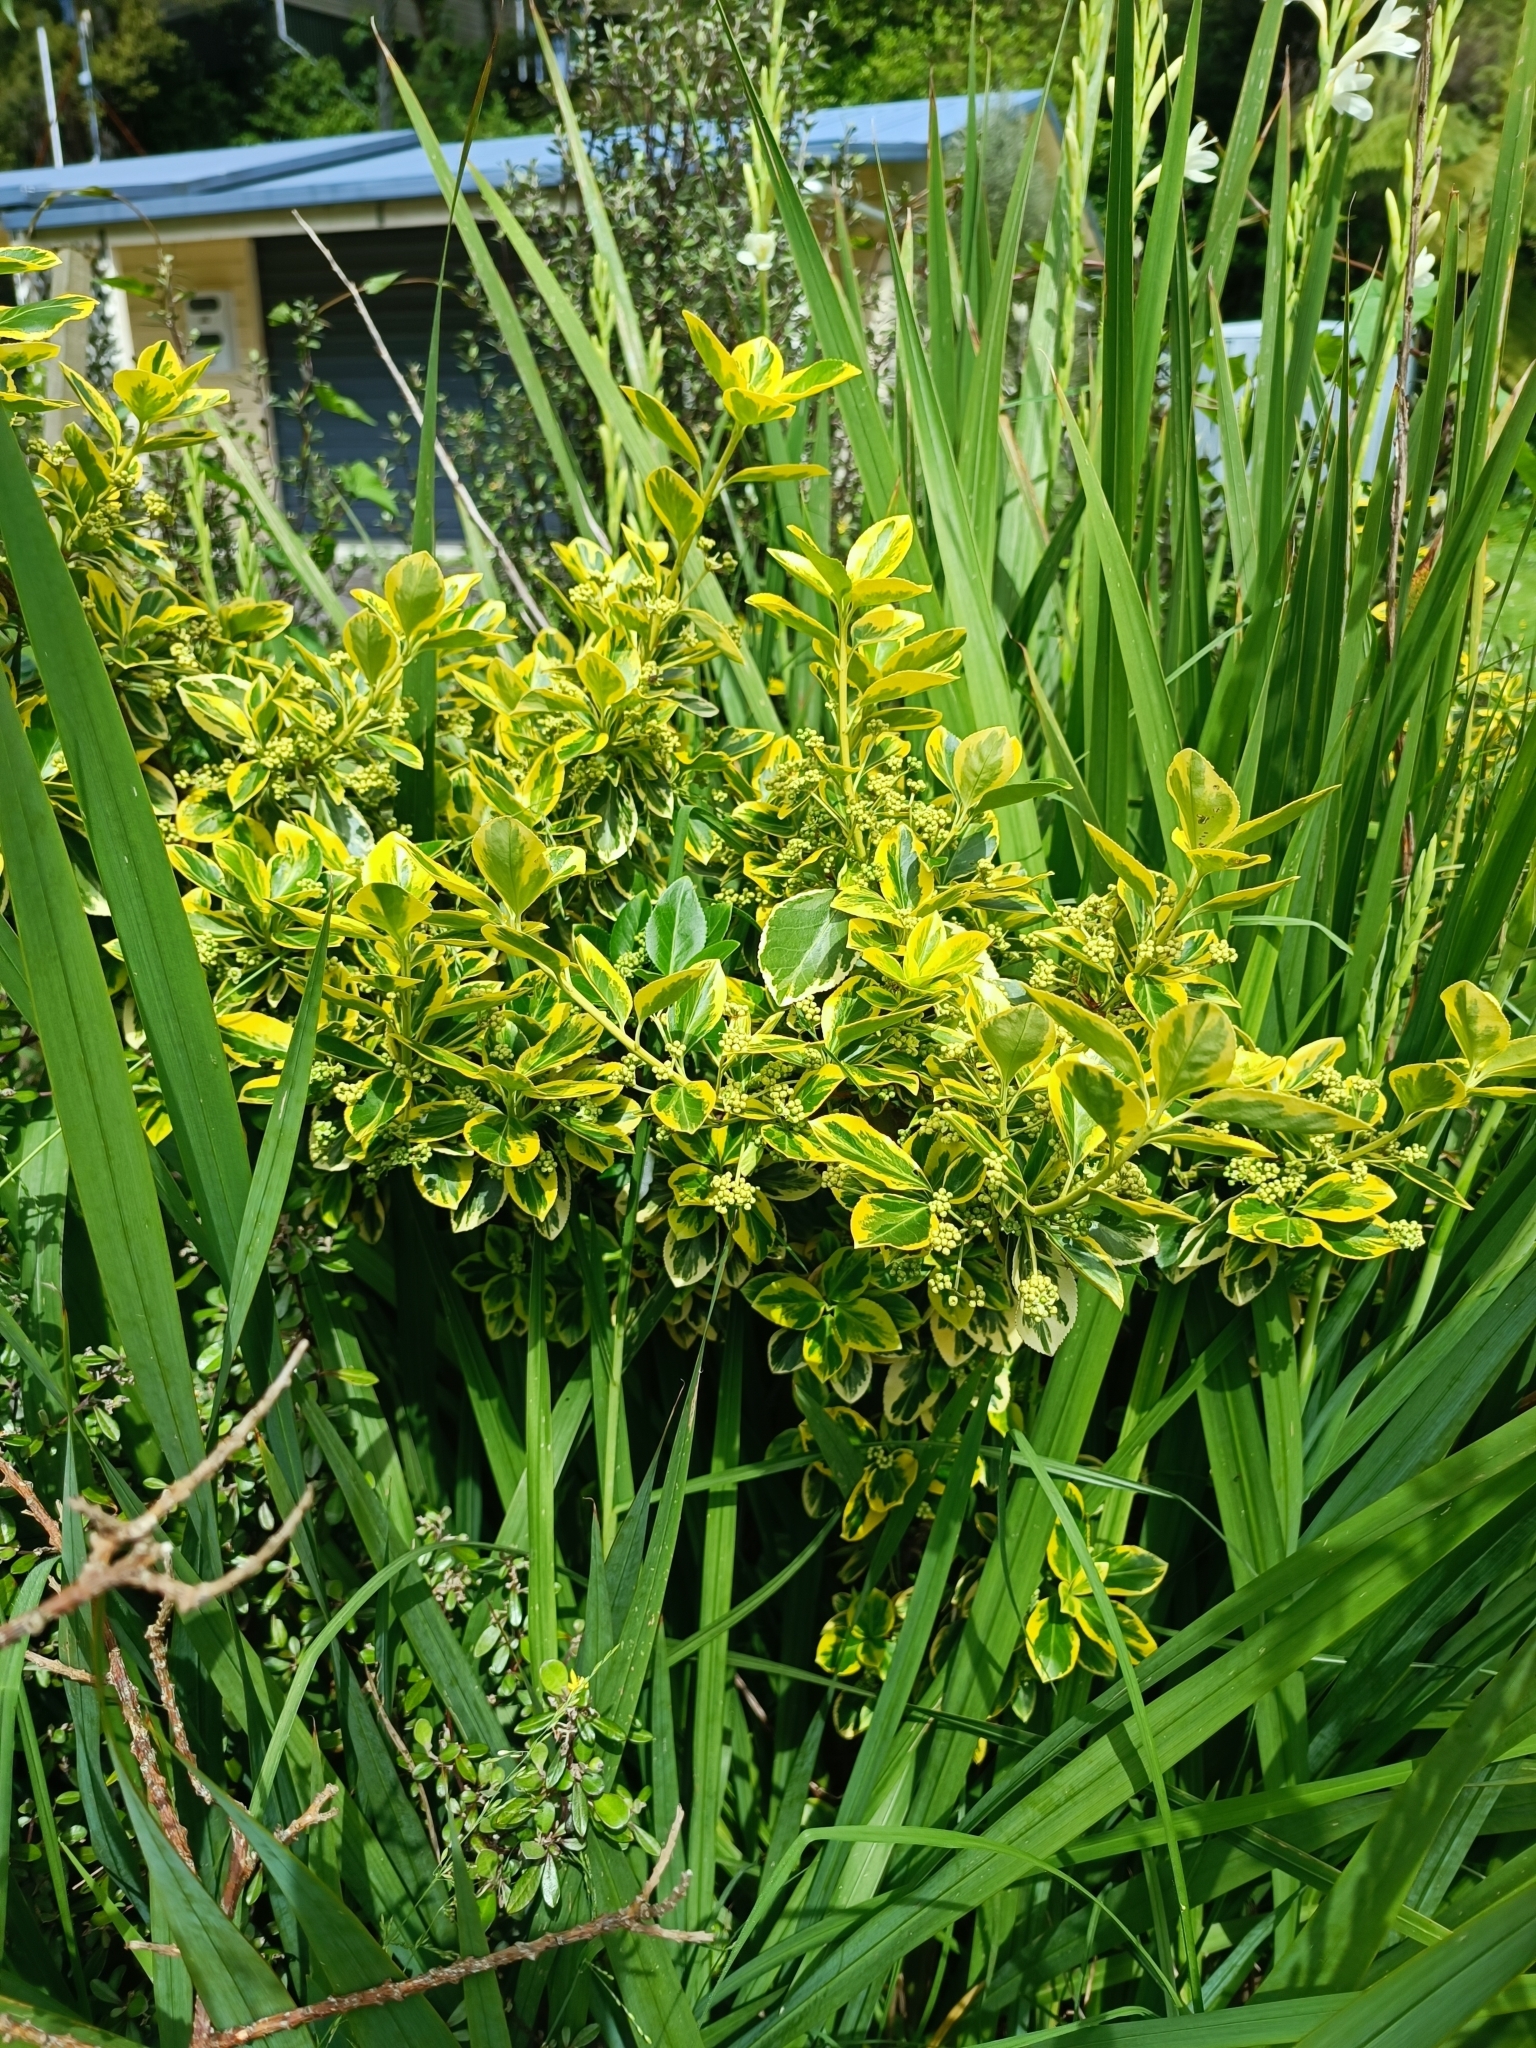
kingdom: Plantae
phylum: Tracheophyta
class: Magnoliopsida
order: Celastrales
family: Celastraceae
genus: Euonymus
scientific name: Euonymus japonicus
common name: Japanese spindletree
